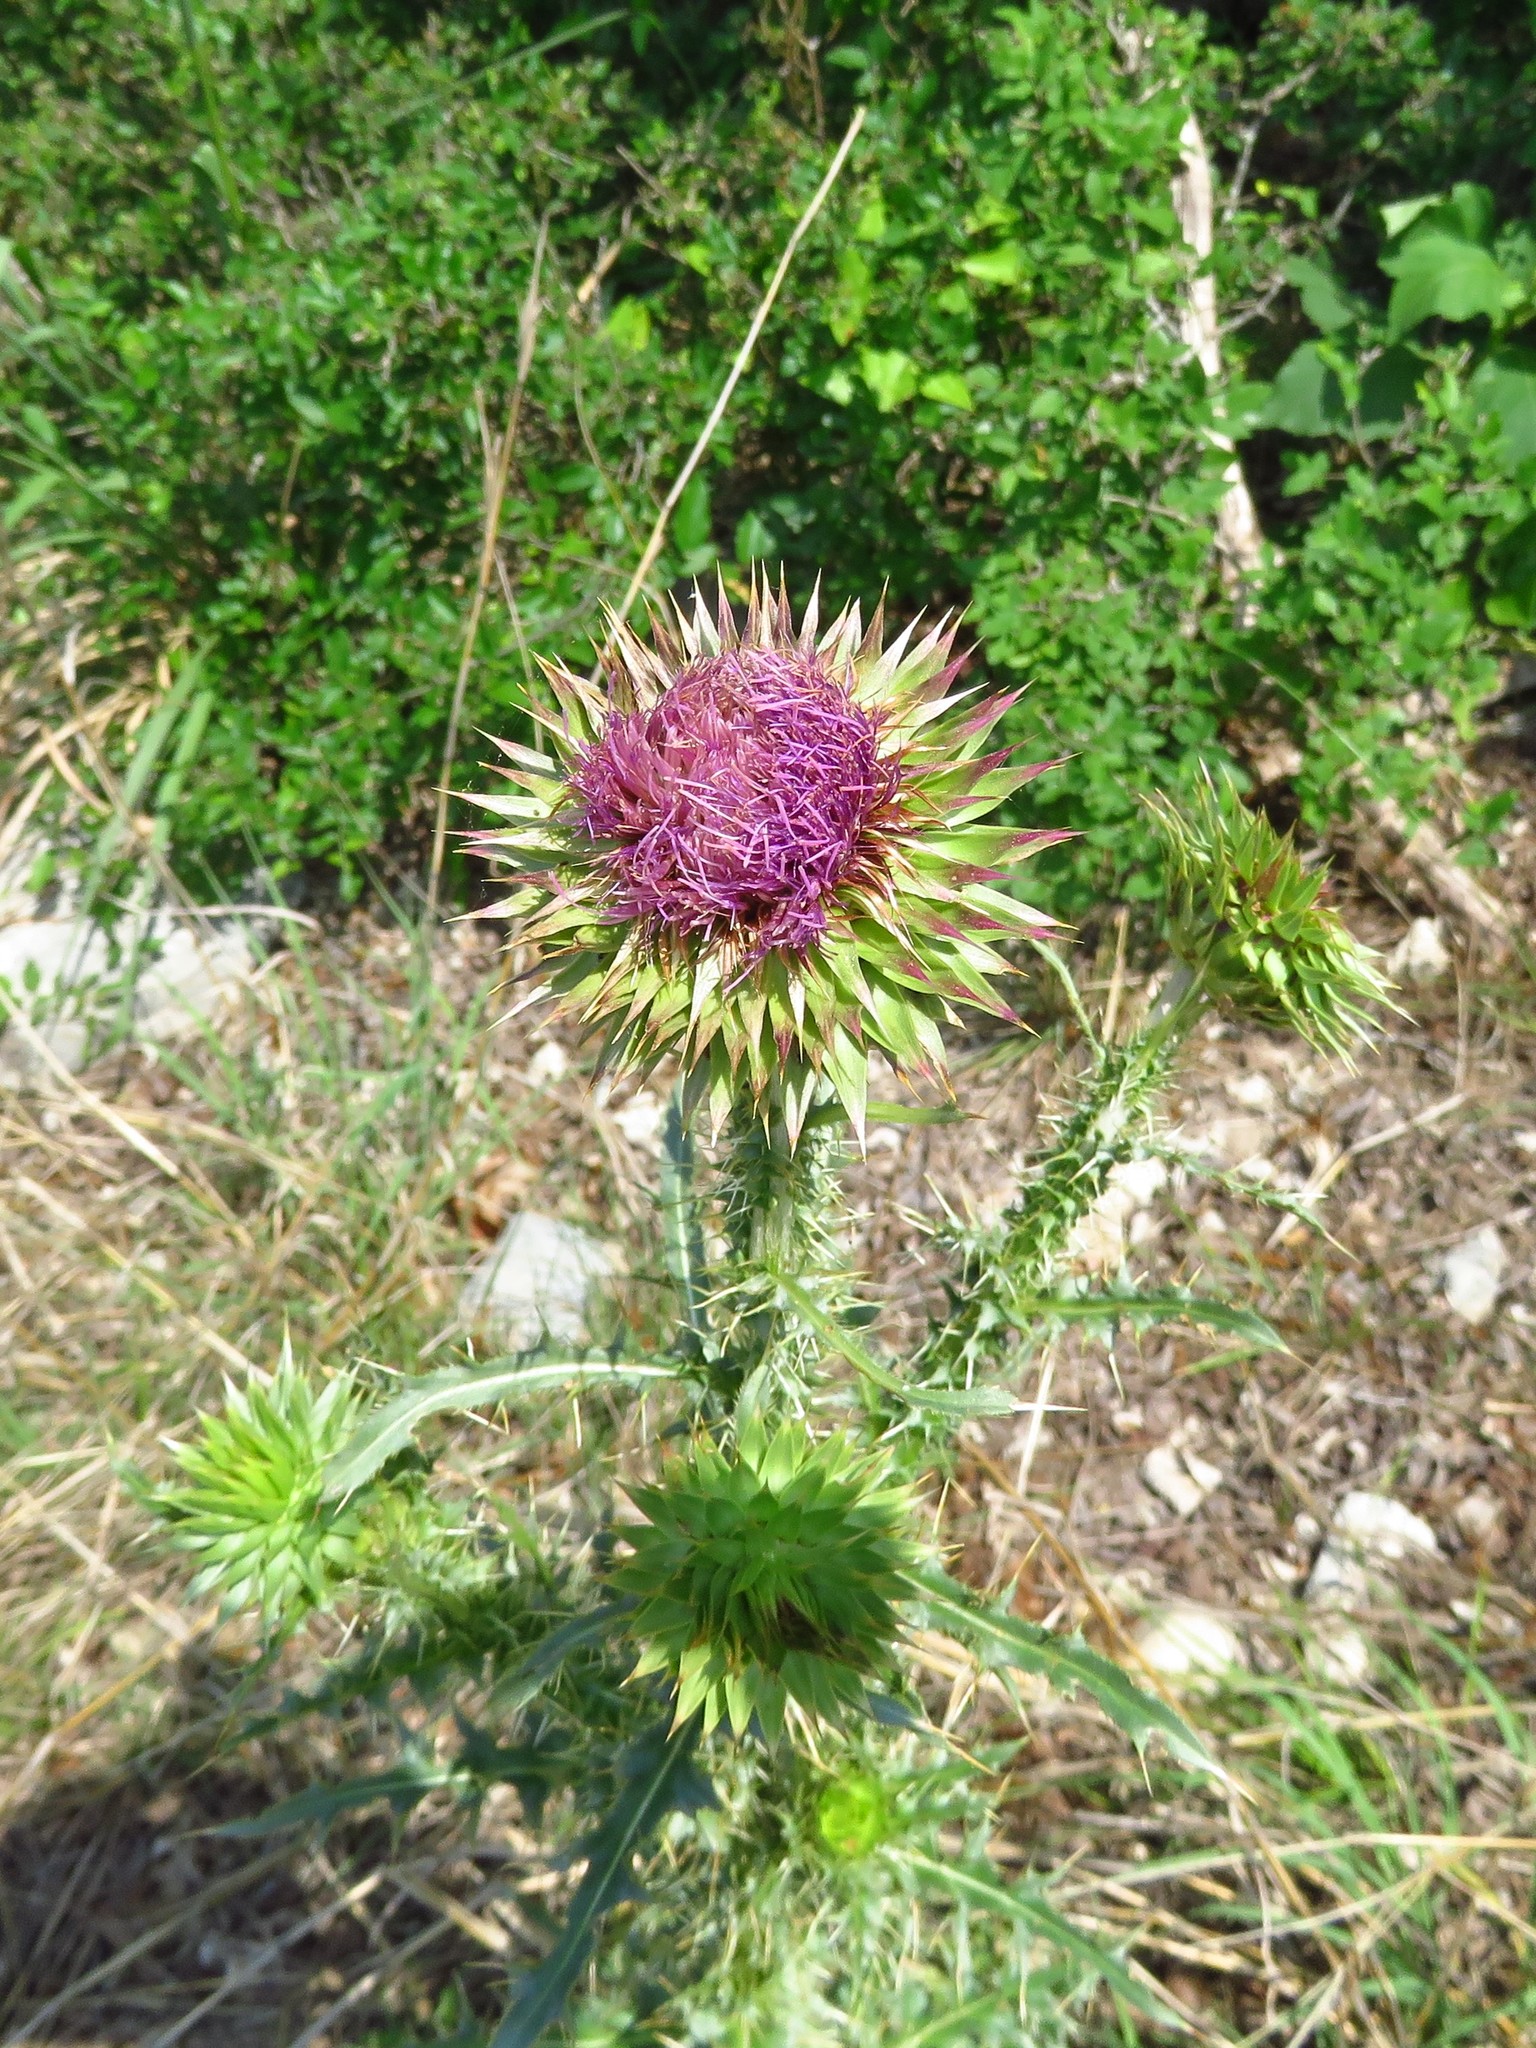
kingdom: Plantae
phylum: Tracheophyta
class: Magnoliopsida
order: Asterales
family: Asteraceae
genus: Carduus
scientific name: Carduus nutans
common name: Musk thistle
